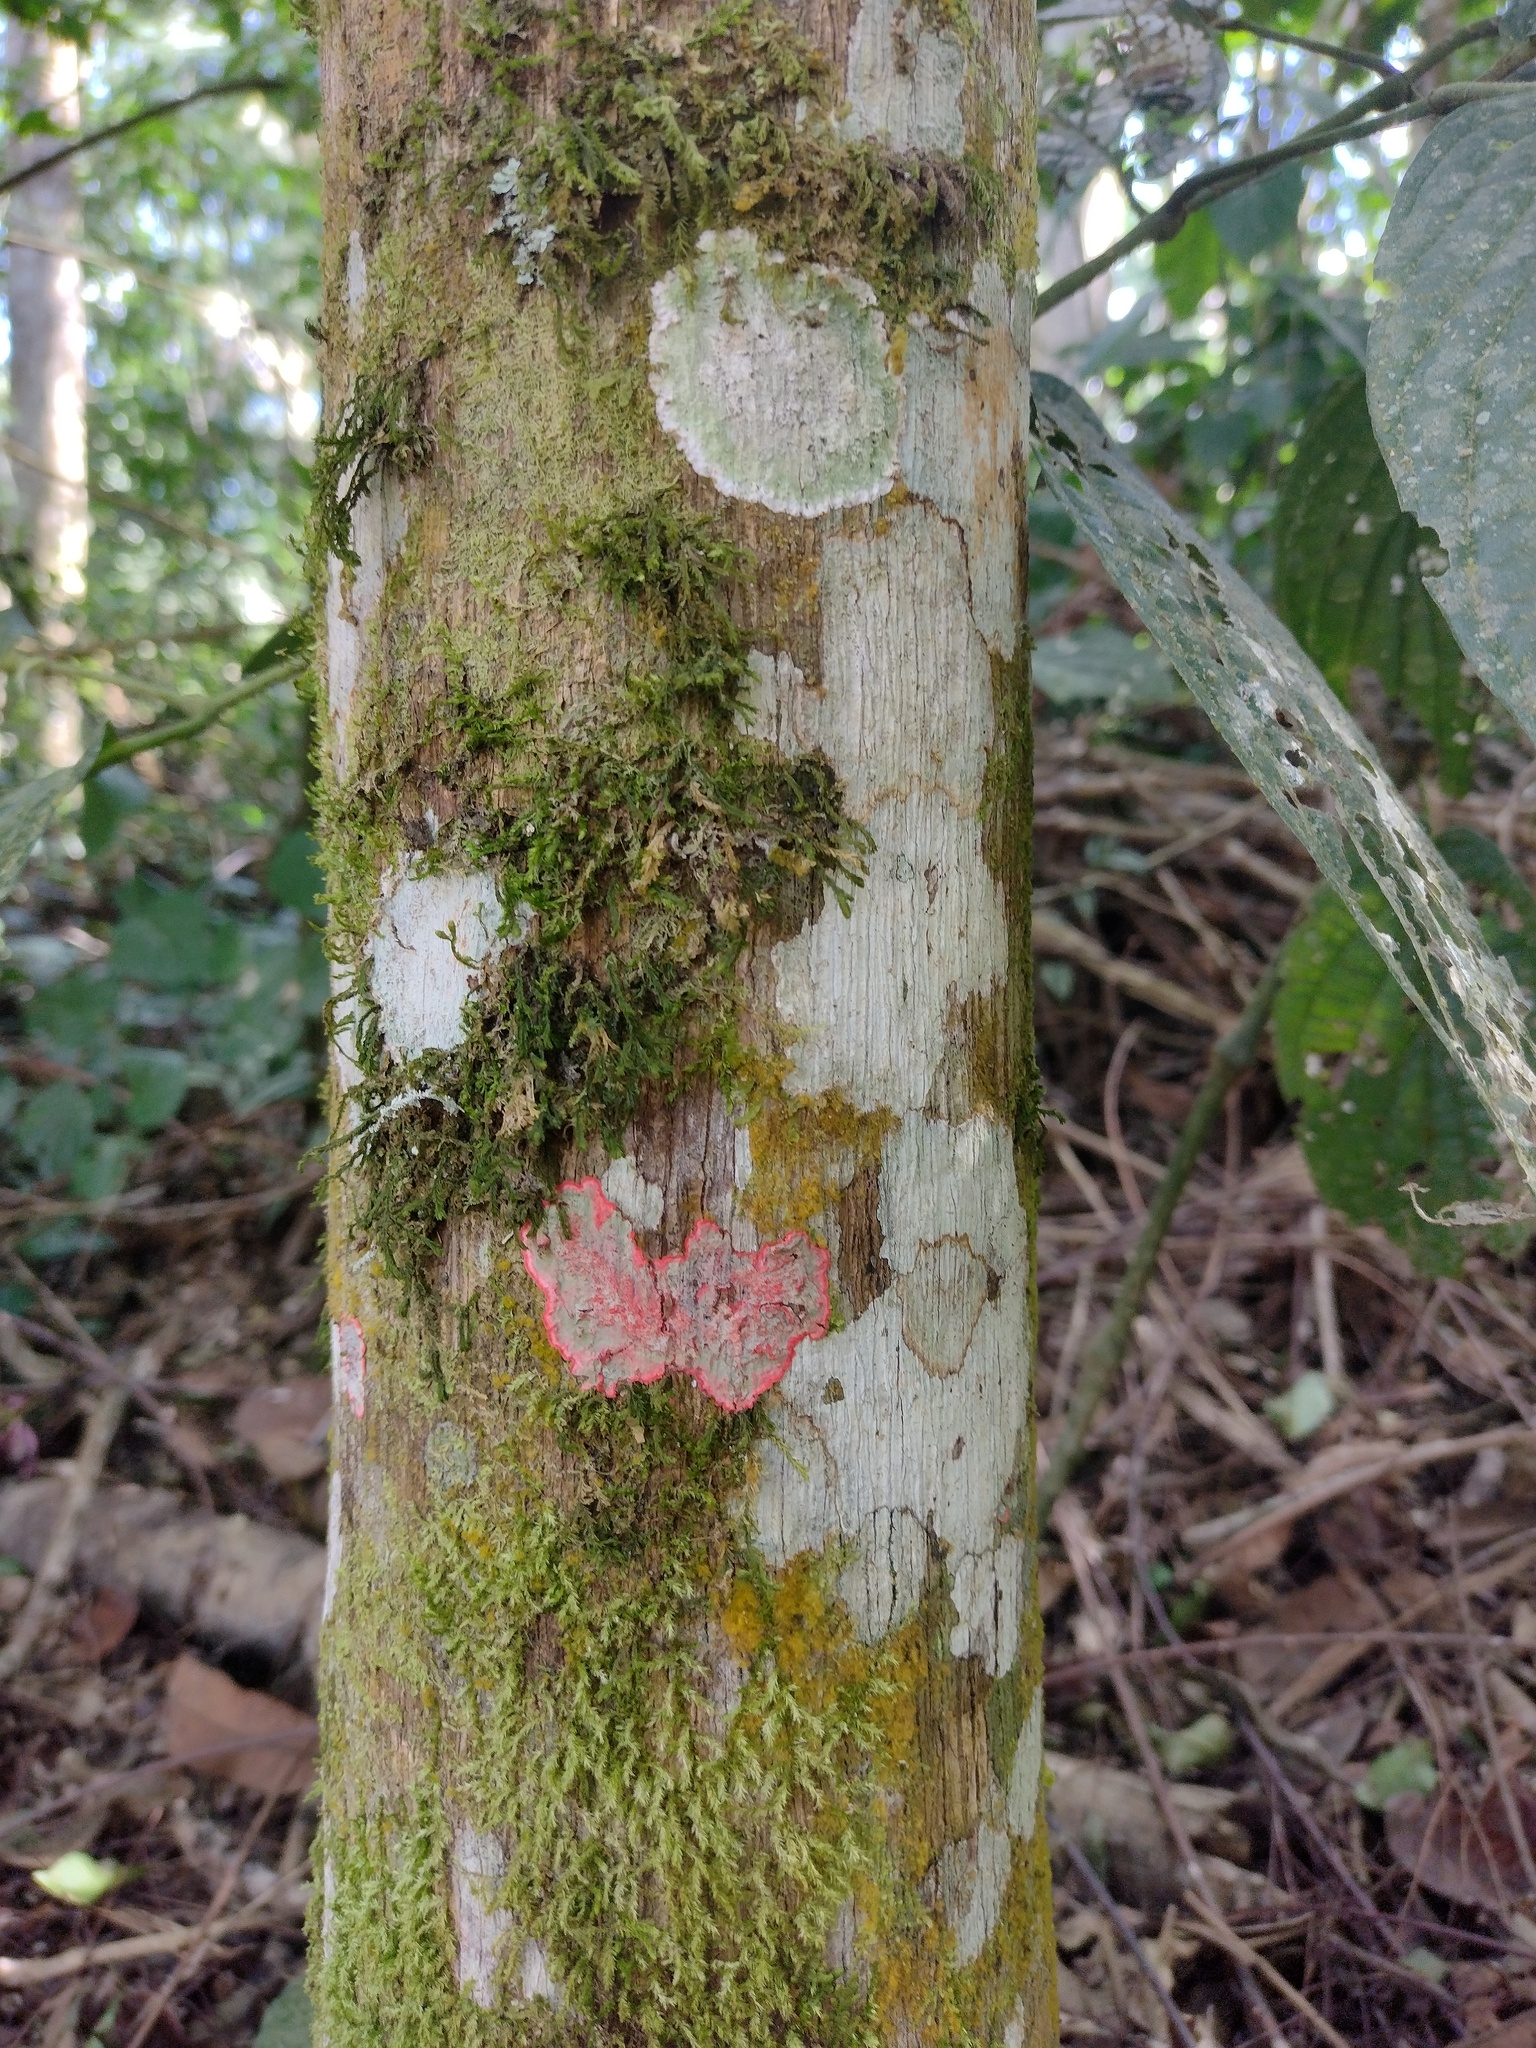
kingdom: Fungi
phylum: Ascomycota
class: Arthoniomycetes
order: Arthoniales
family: Arthoniaceae
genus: Herpothallon
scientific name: Herpothallon rubrocinctum
